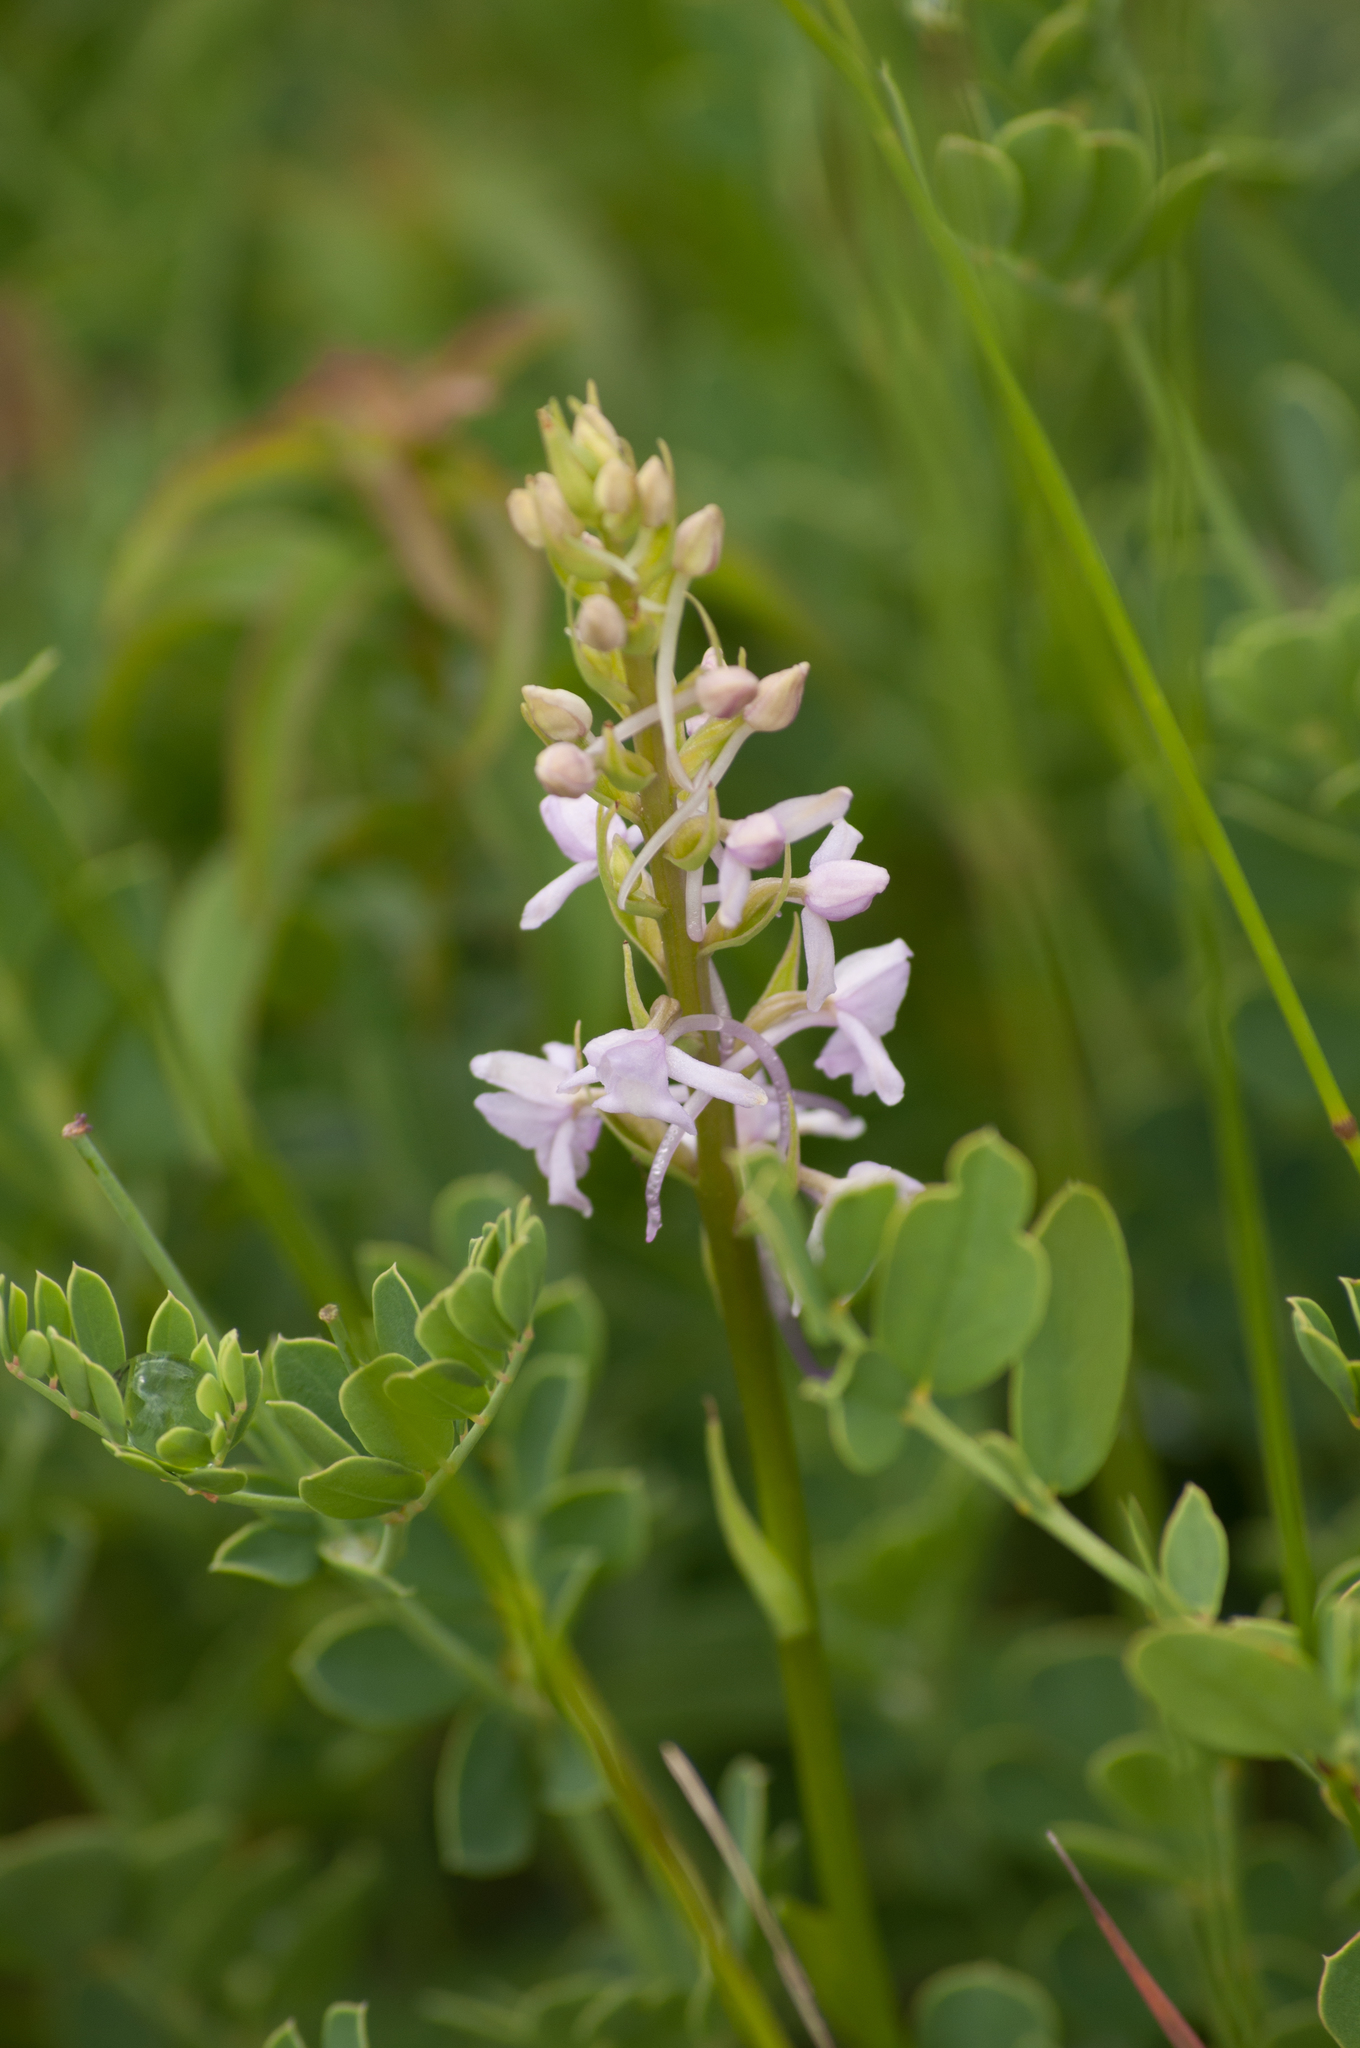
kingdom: Plantae
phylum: Tracheophyta
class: Liliopsida
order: Asparagales
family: Orchidaceae
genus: Gymnadenia
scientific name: Gymnadenia conopsea
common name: Fragrant orchid
